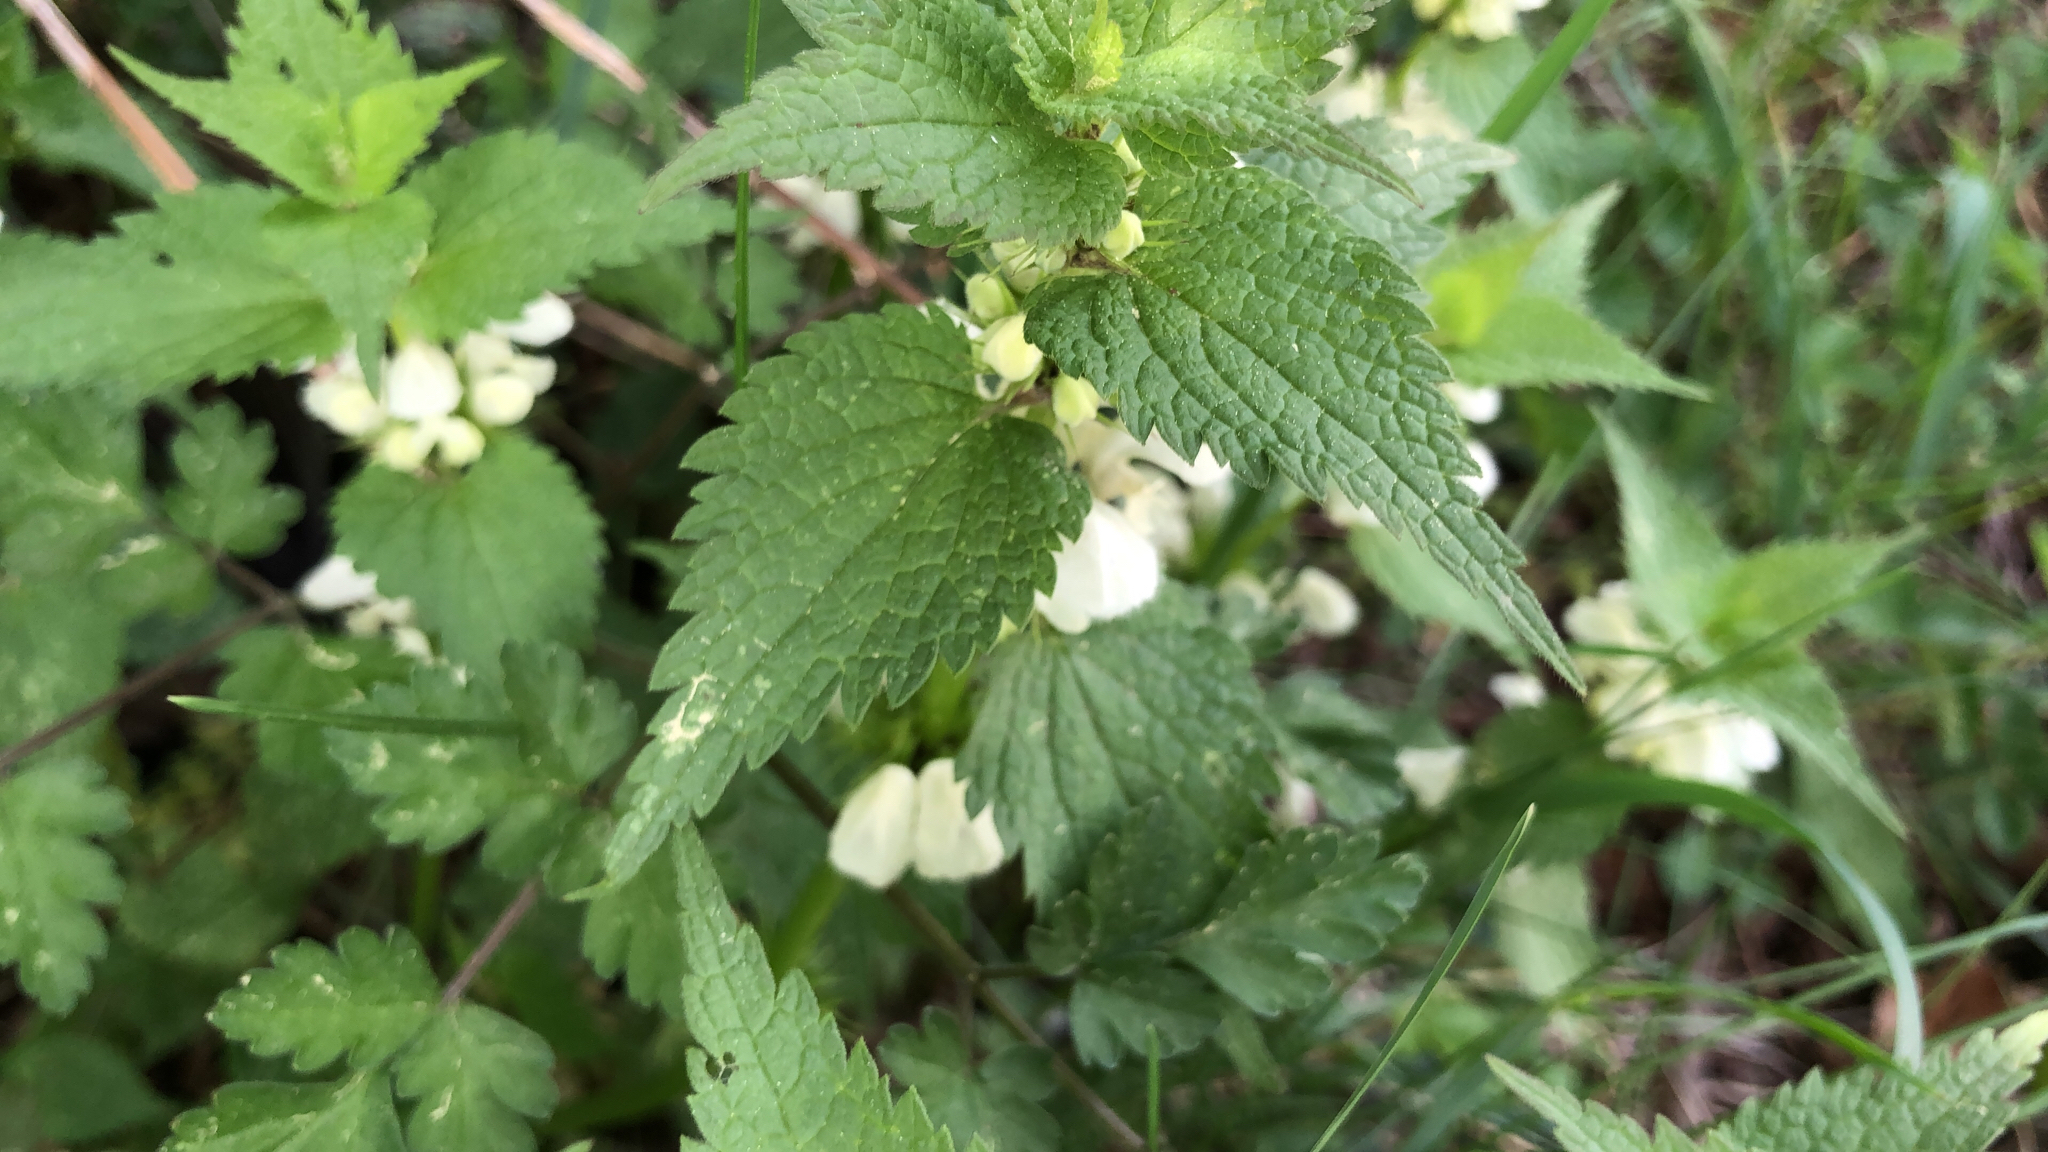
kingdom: Plantae
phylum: Tracheophyta
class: Magnoliopsida
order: Lamiales
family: Lamiaceae
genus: Lamium
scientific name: Lamium album
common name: White dead-nettle
